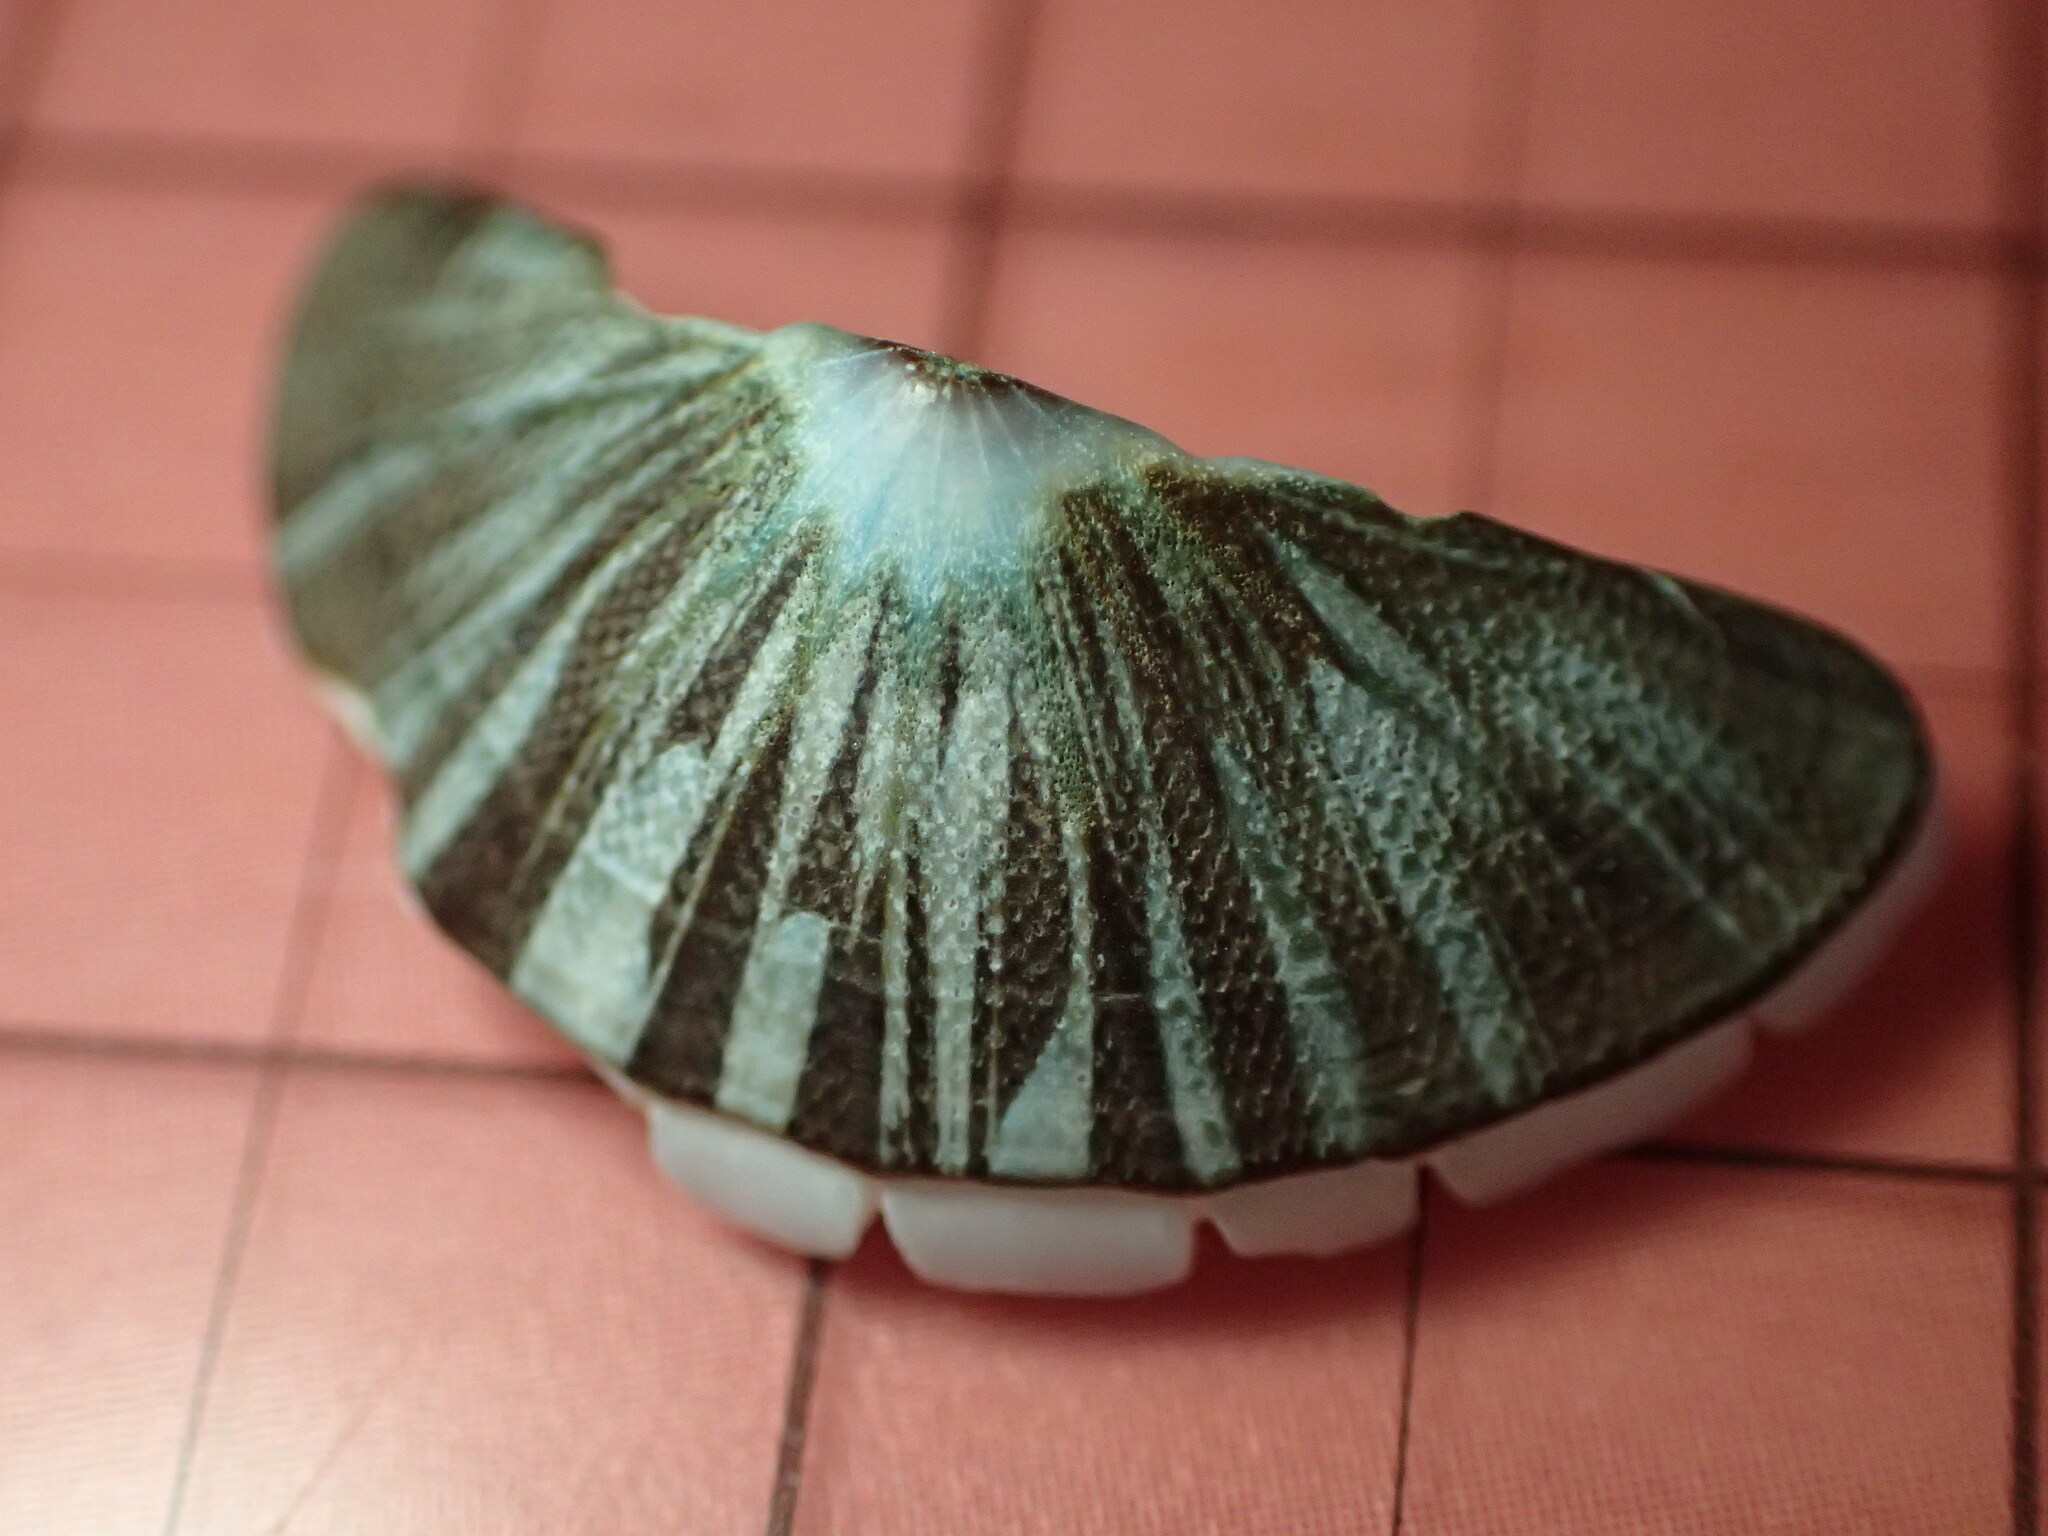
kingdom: Animalia
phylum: Mollusca
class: Polyplacophora
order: Chitonida
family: Mopaliidae
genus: Mopalia
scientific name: Mopalia lignosa
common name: Woody chiton
